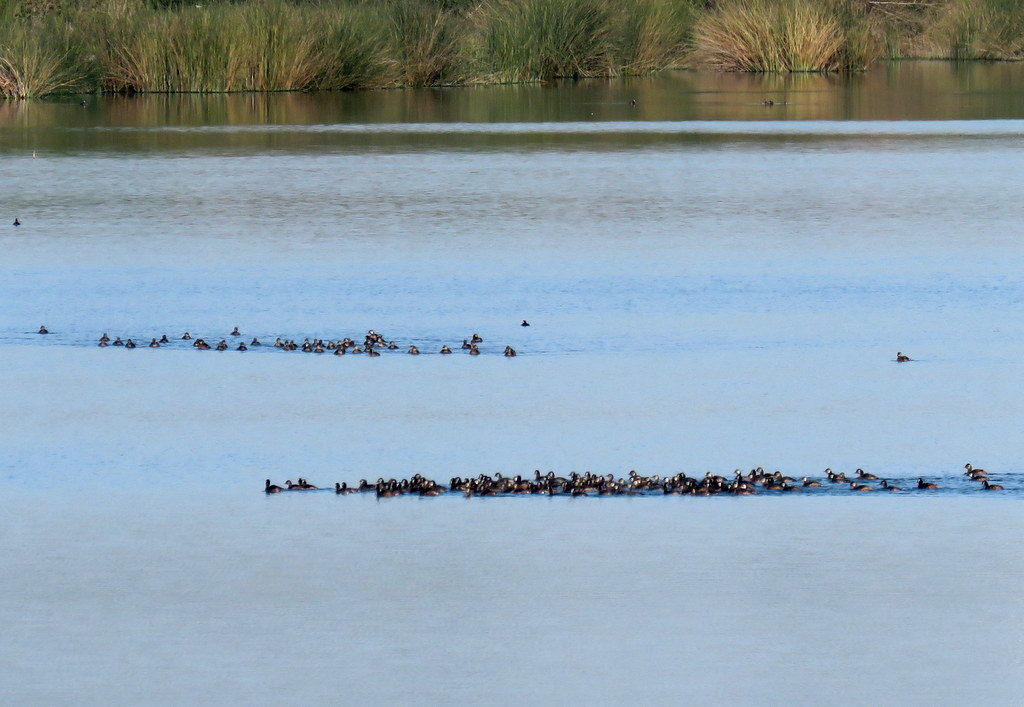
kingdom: Animalia
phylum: Chordata
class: Aves
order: Podicipediformes
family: Podicipedidae
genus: Rollandia
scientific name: Rollandia rolland
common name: White-tufted grebe
